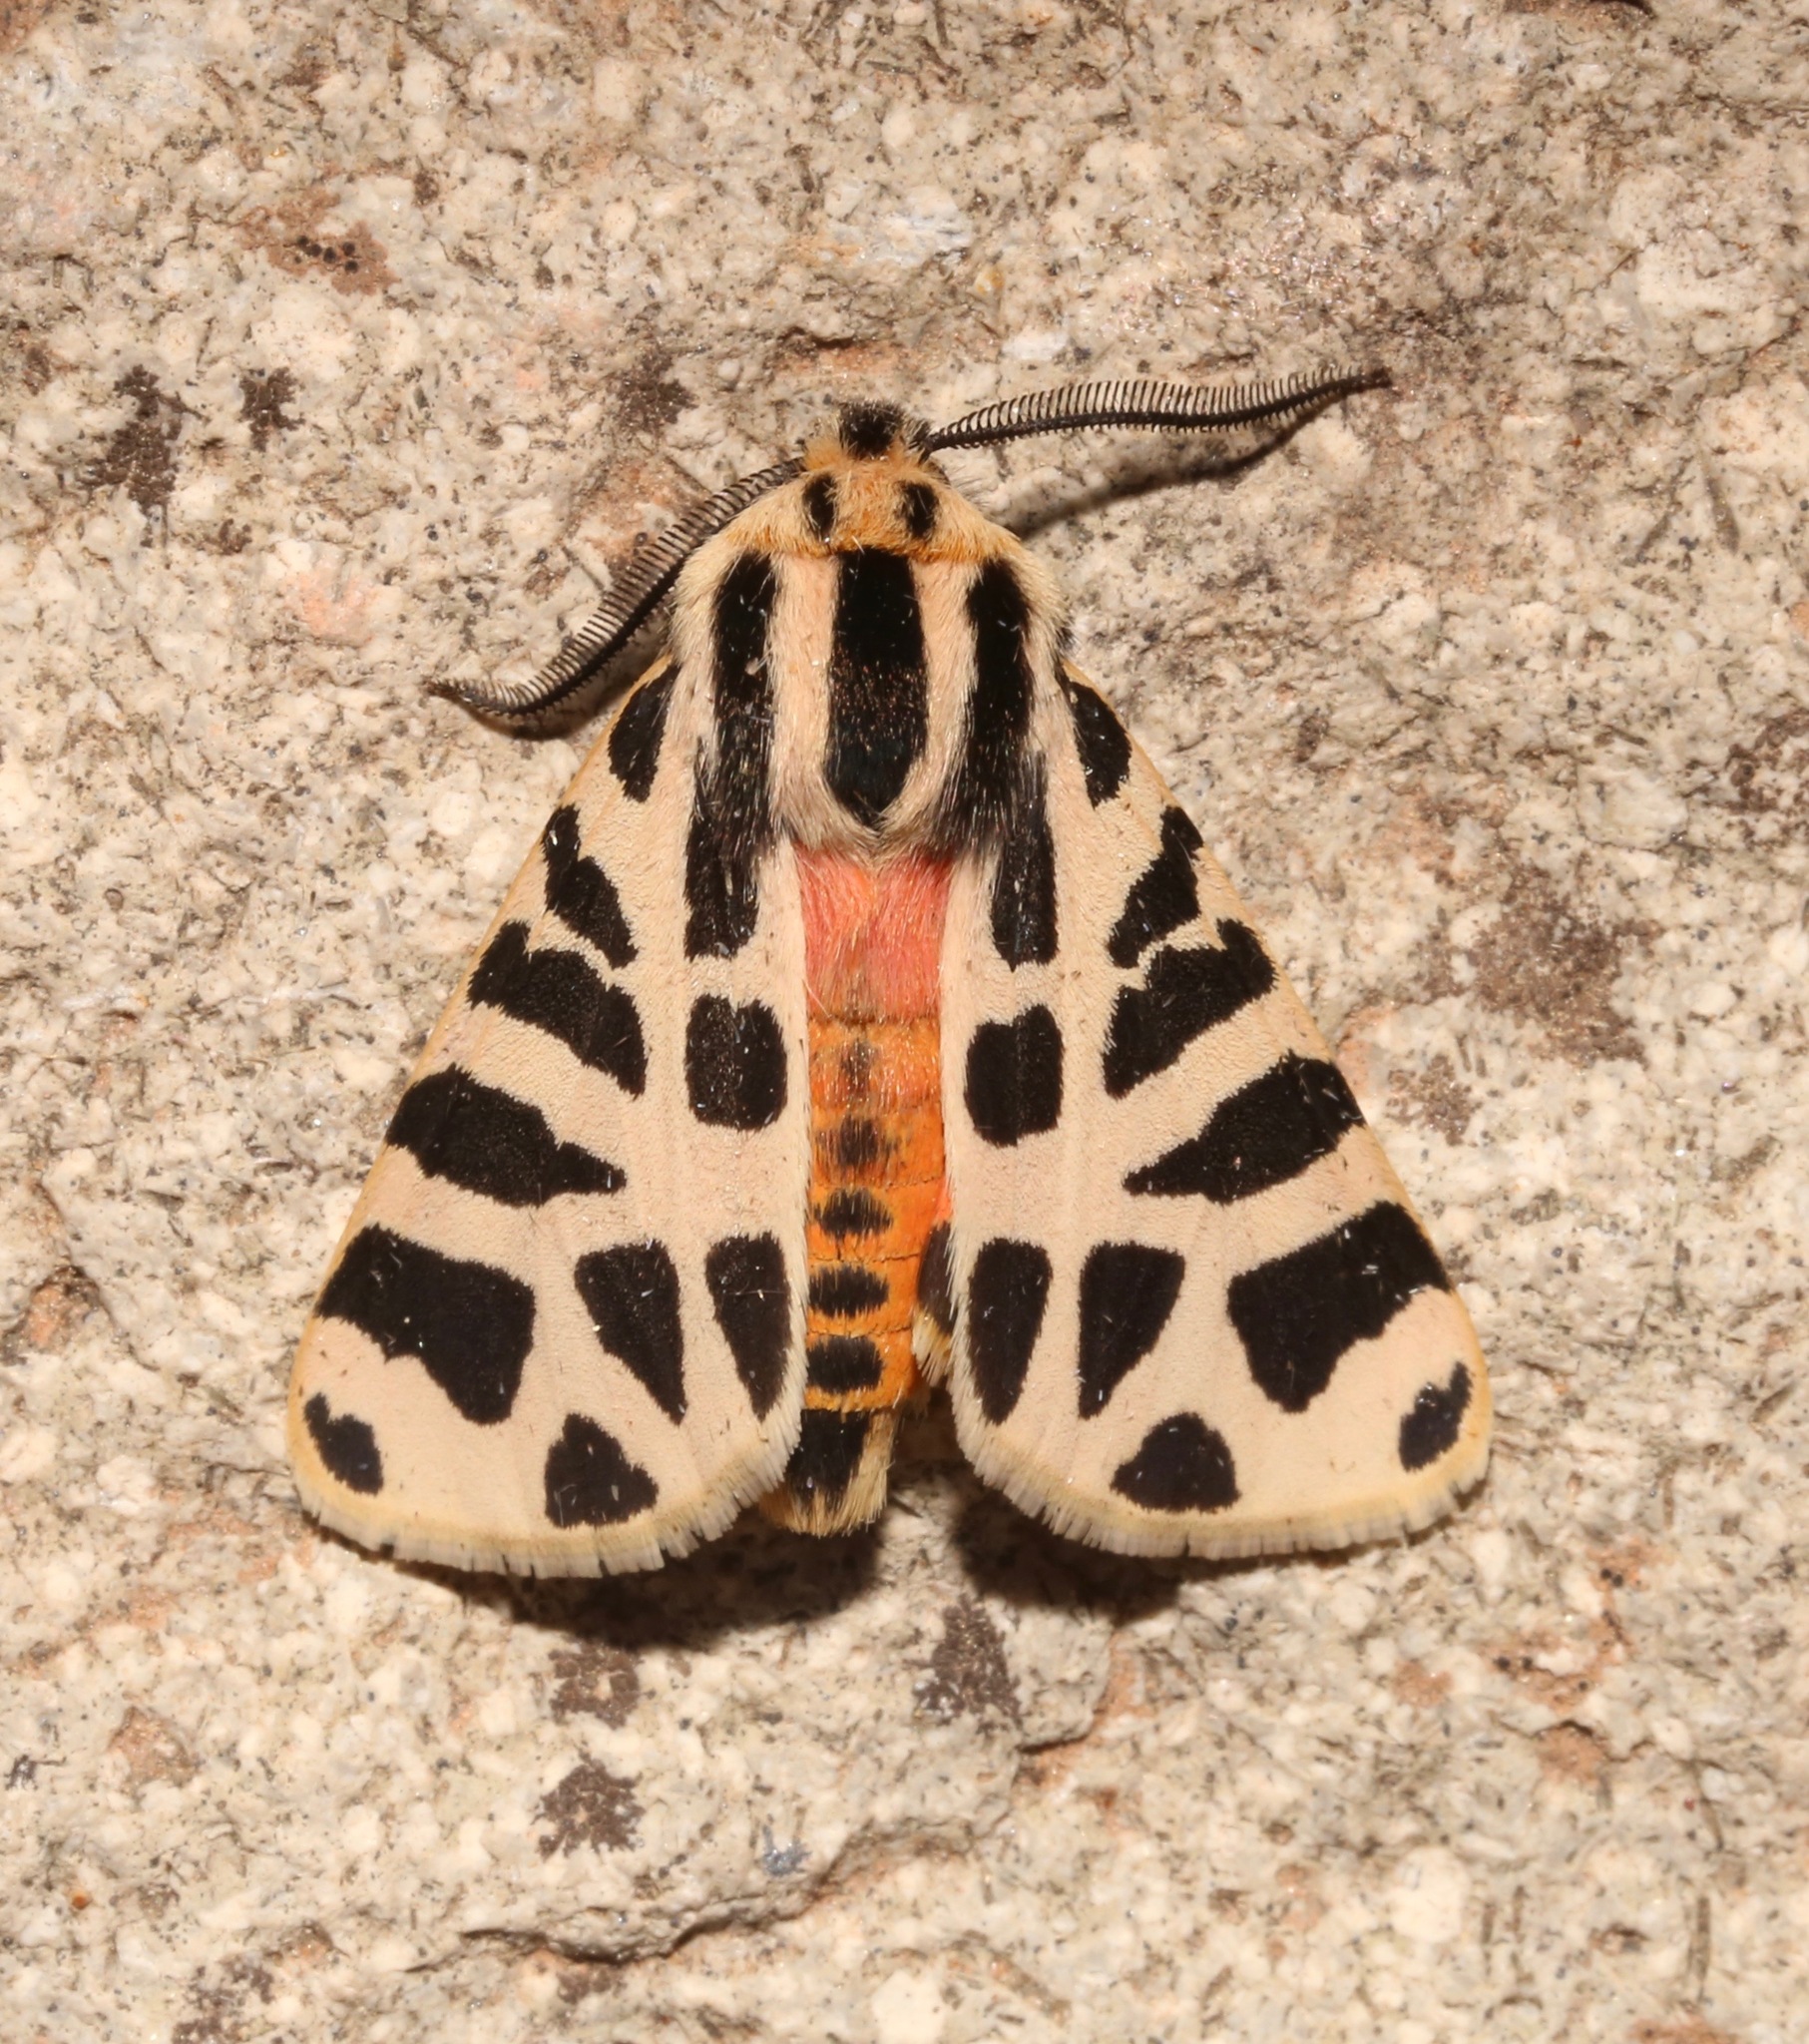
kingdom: Animalia
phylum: Arthropoda
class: Insecta
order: Lepidoptera
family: Erebidae
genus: Apantesis
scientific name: Apantesis incorrupta
